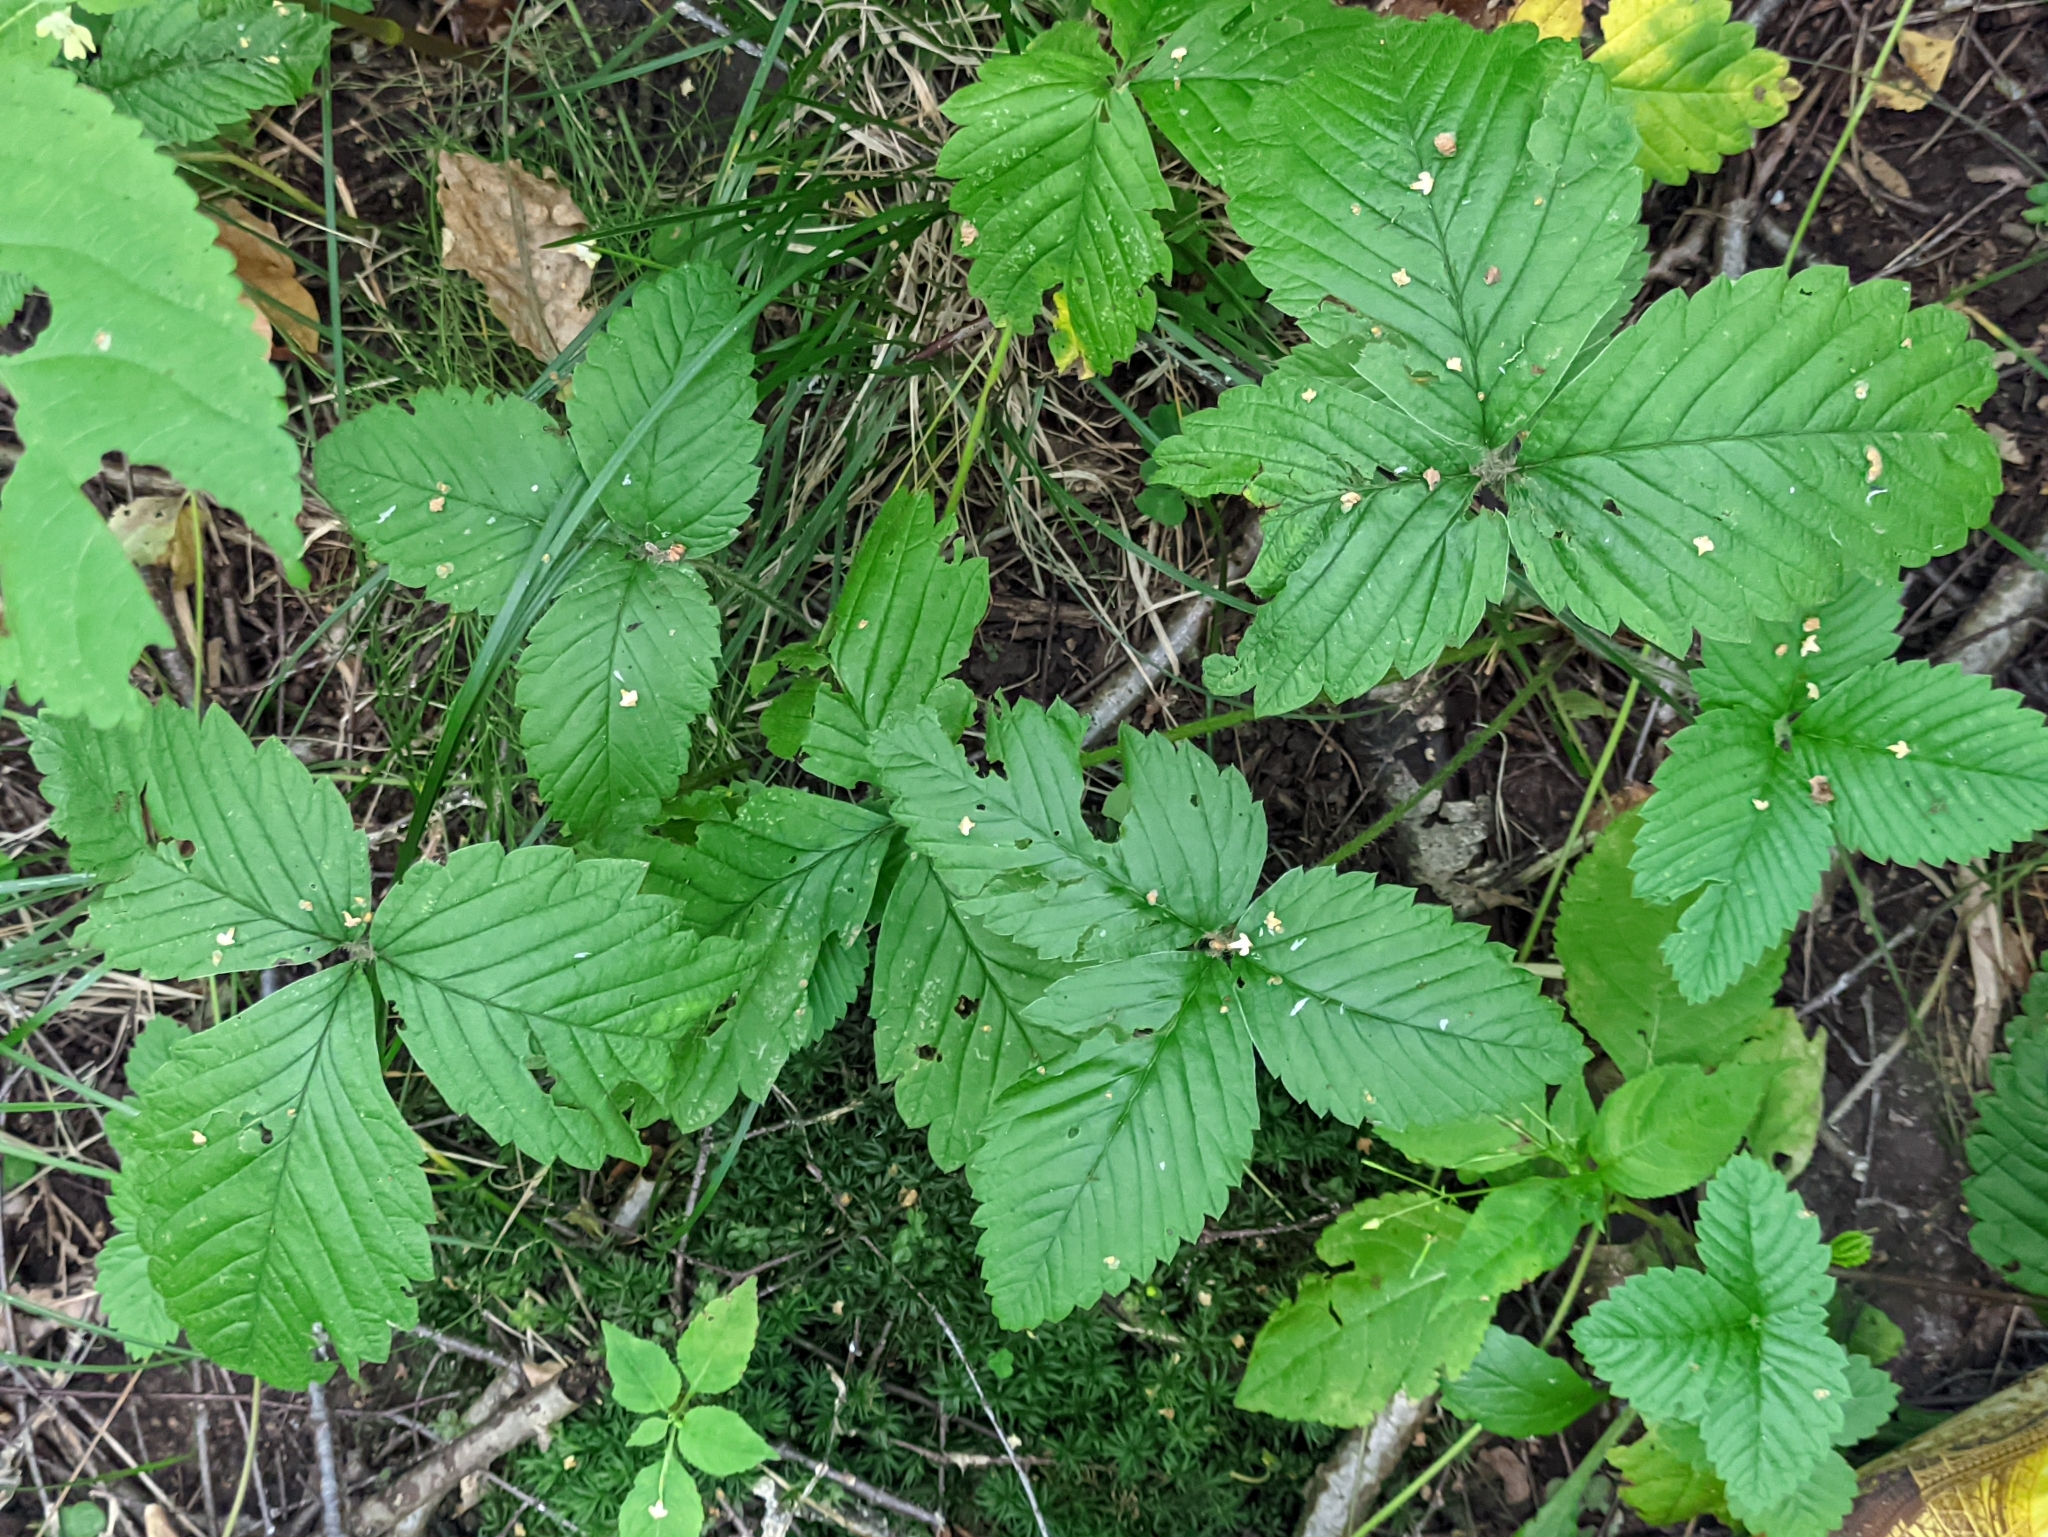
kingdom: Plantae
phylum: Tracheophyta
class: Magnoliopsida
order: Rosales
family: Rosaceae
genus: Fragaria
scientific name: Fragaria moschata
